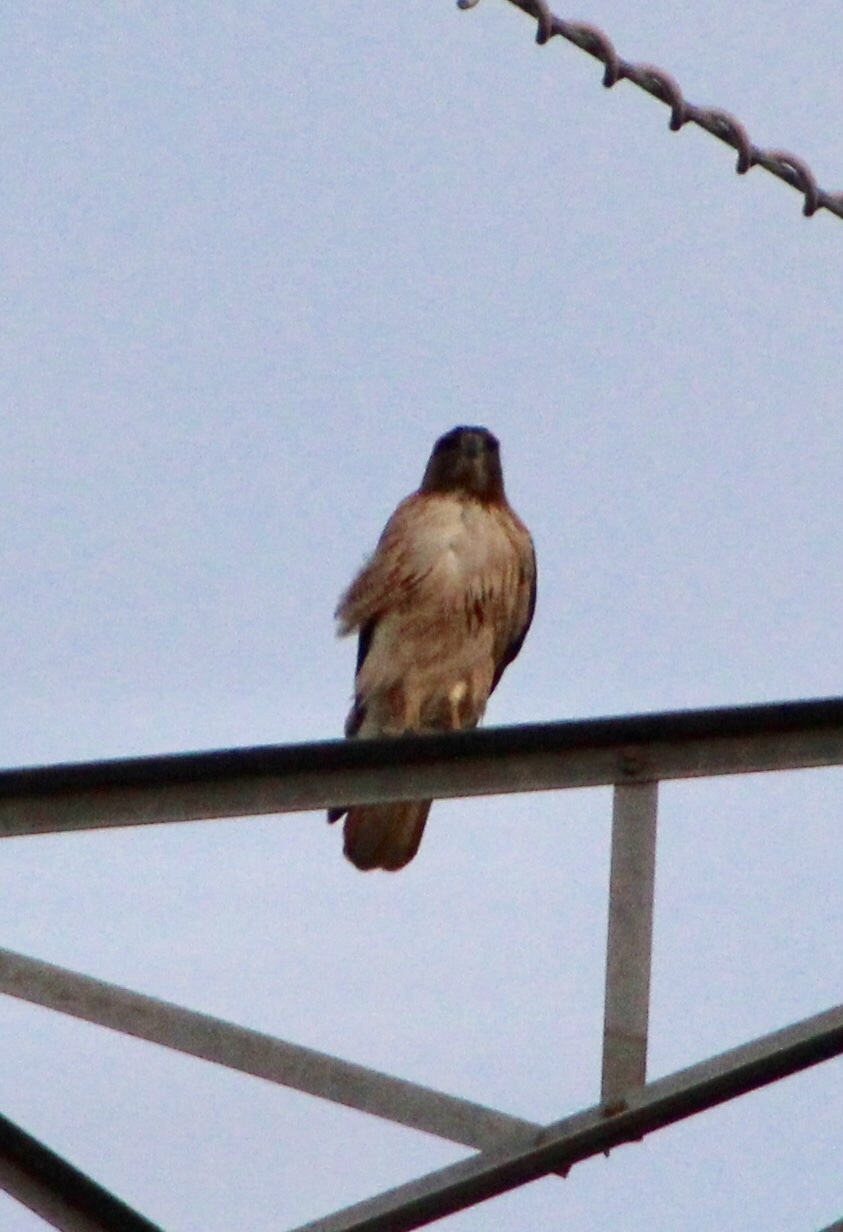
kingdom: Animalia
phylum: Chordata
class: Aves
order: Accipitriformes
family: Accipitridae
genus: Buteo
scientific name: Buteo jamaicensis
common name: Red-tailed hawk
